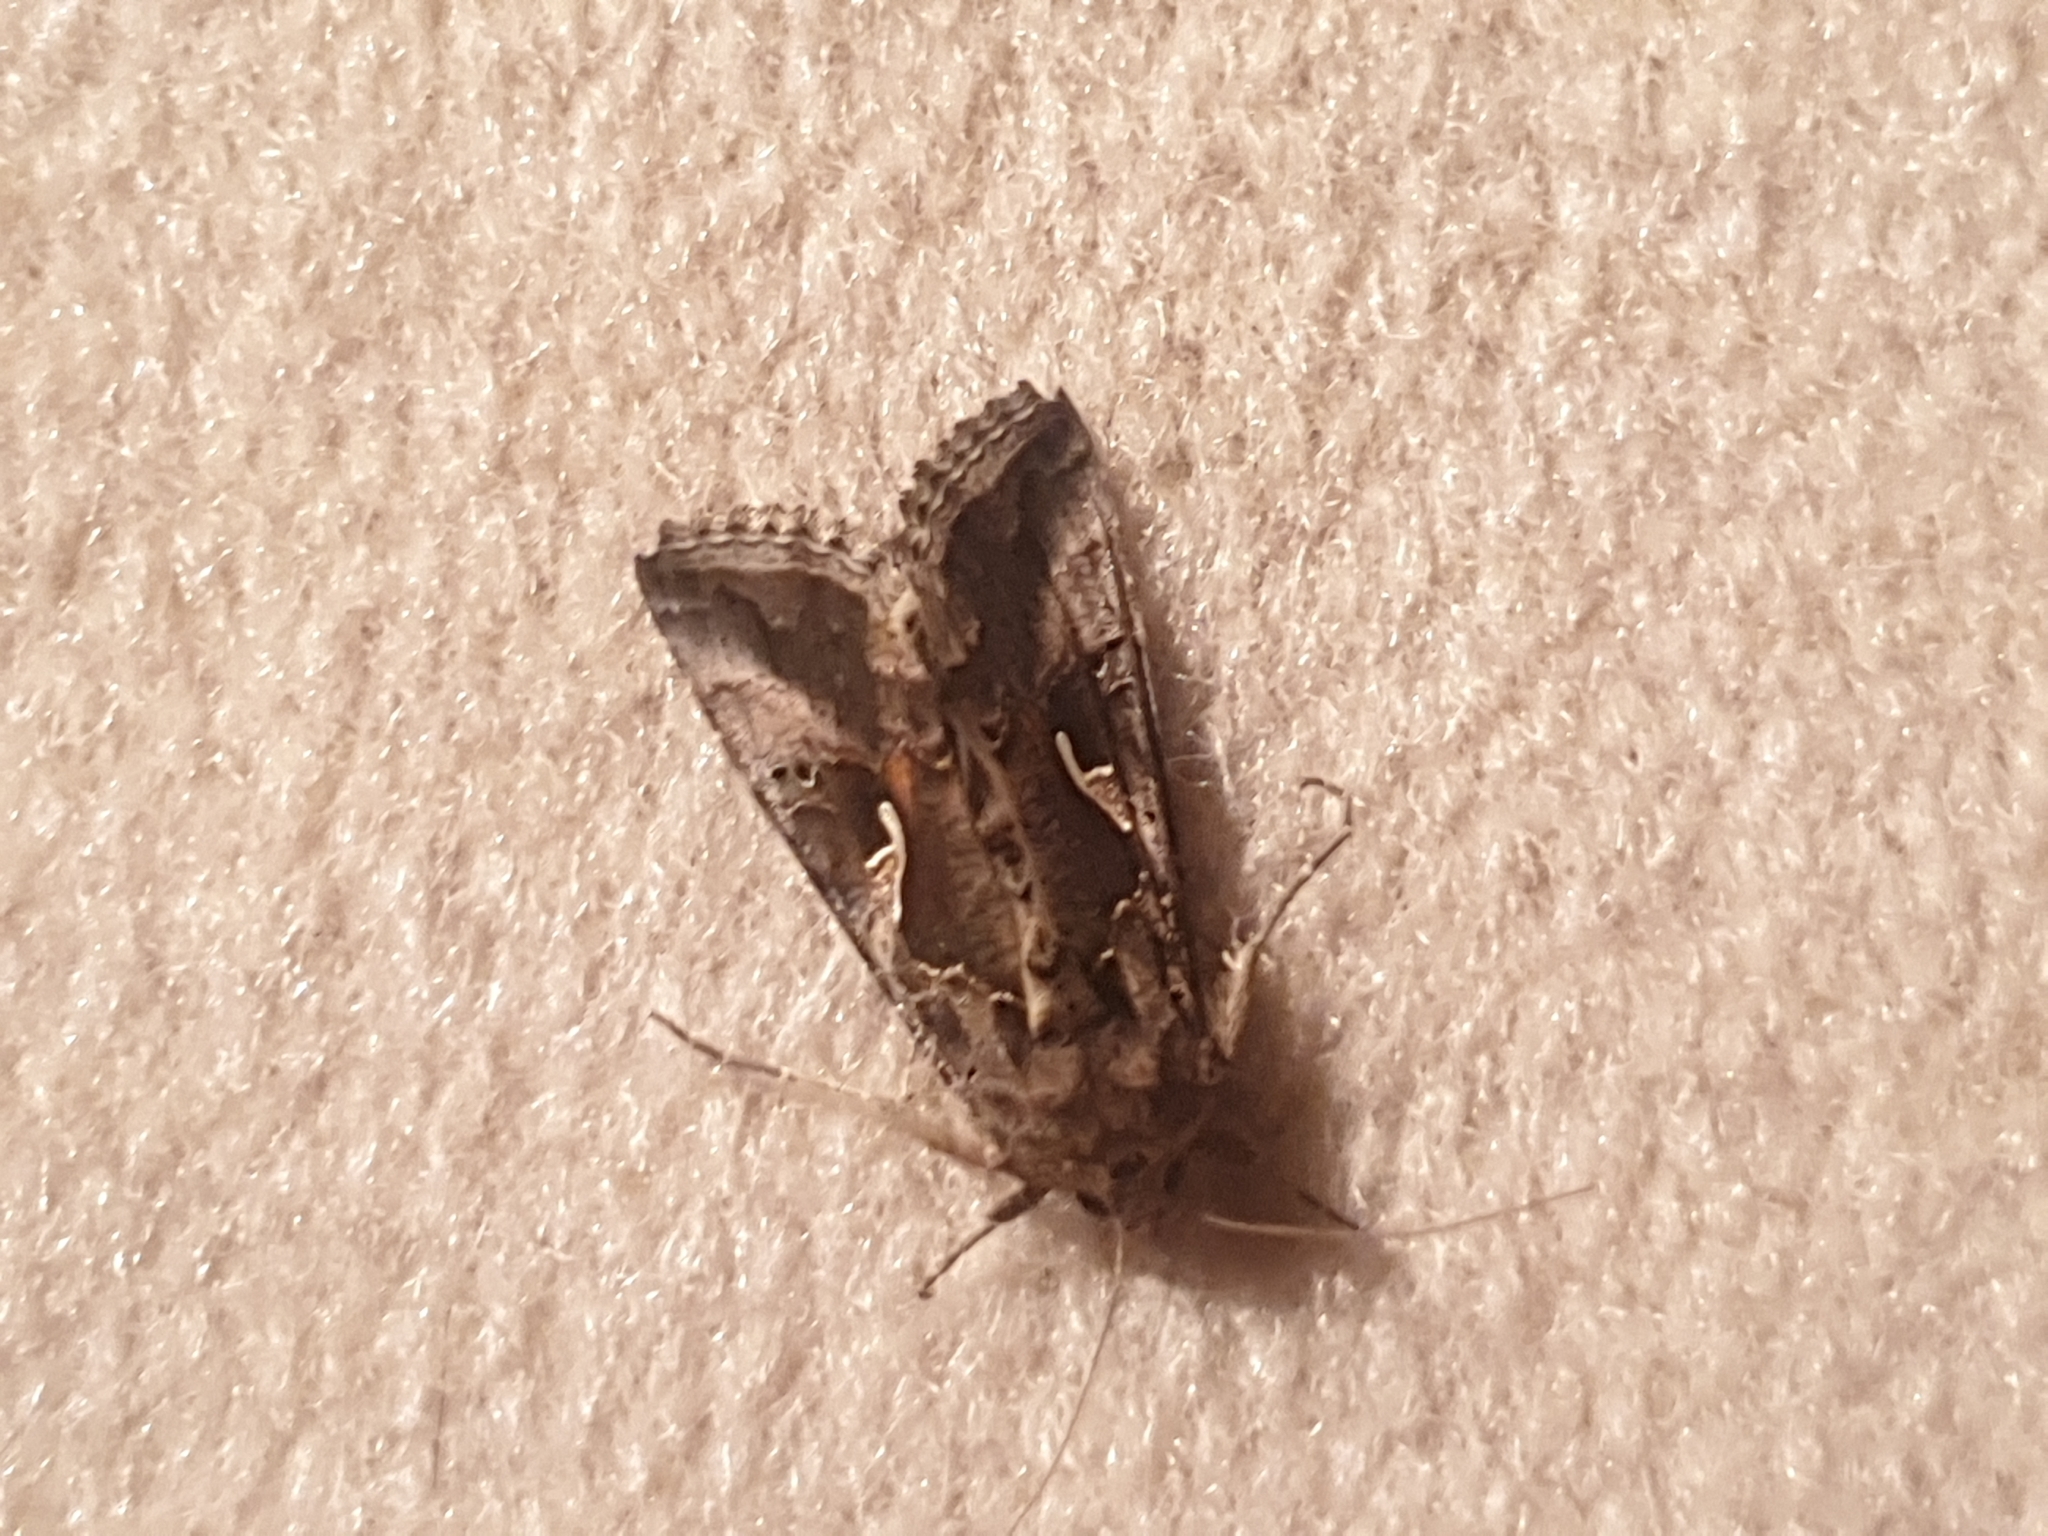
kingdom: Animalia
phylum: Arthropoda
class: Insecta
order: Lepidoptera
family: Noctuidae
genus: Autographa
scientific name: Autographa gamma
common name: Silver y
